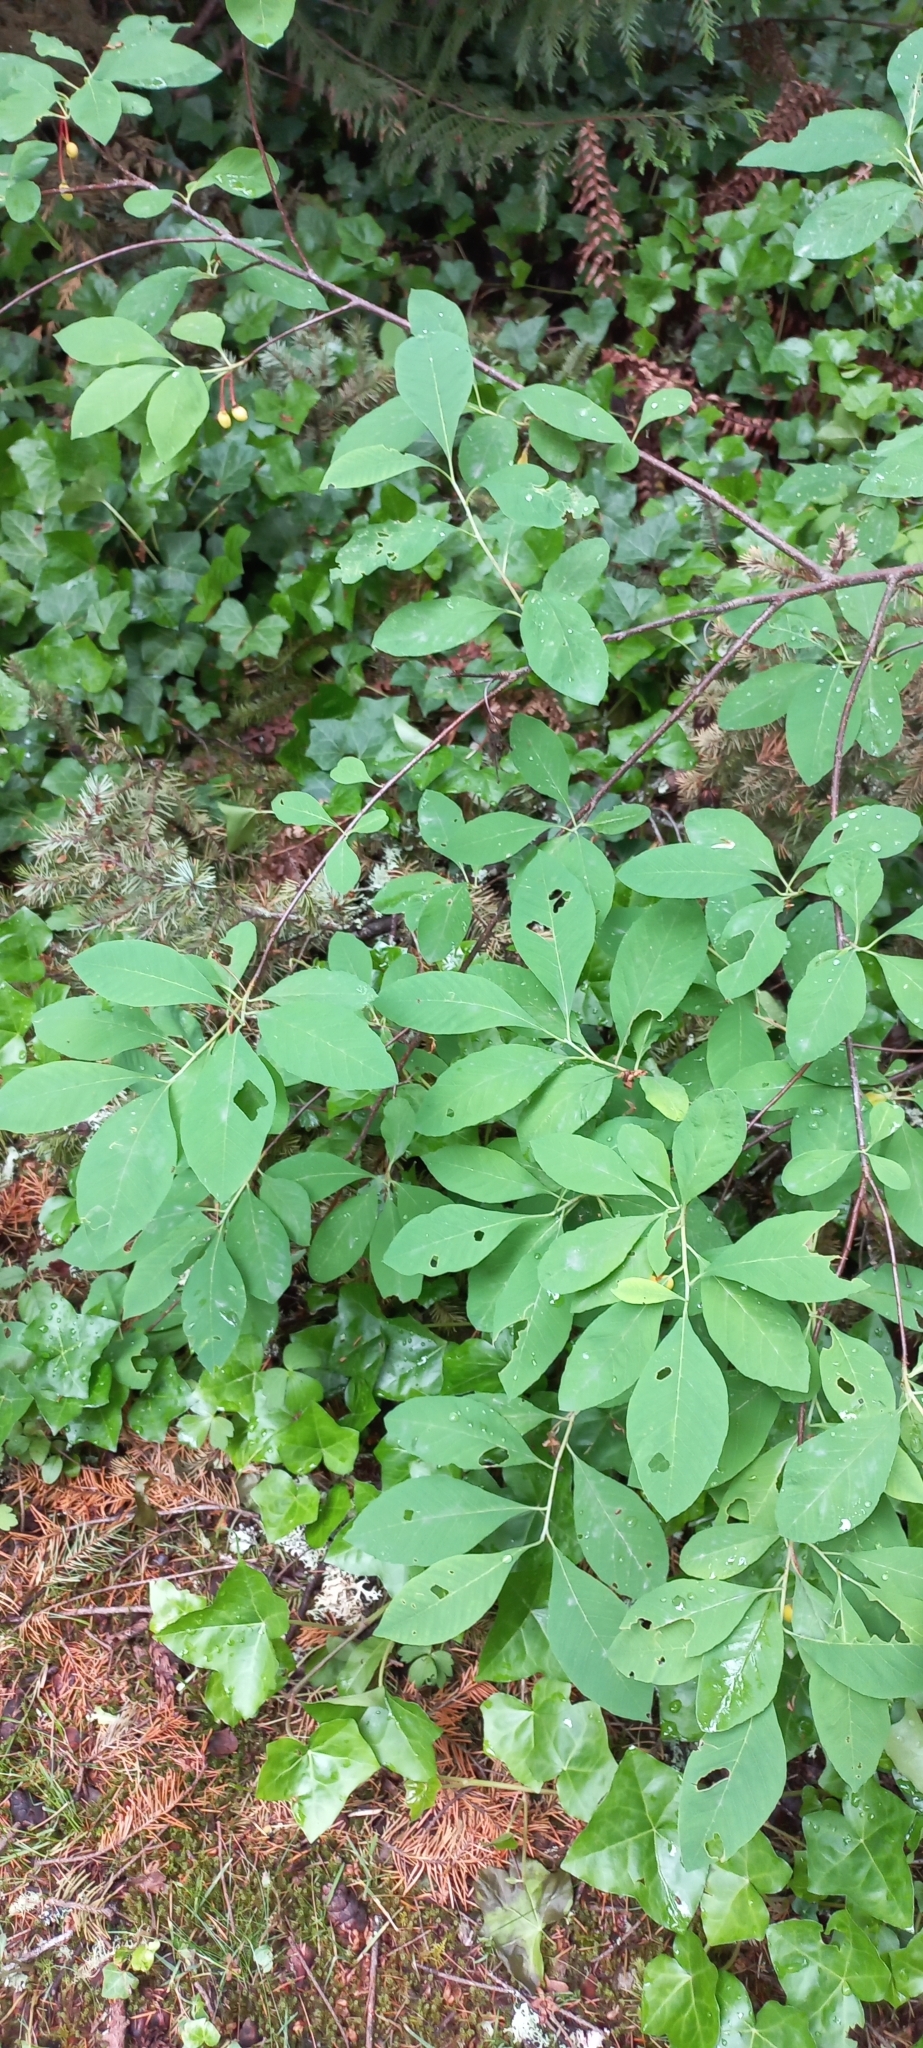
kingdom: Plantae
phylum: Tracheophyta
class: Magnoliopsida
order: Rosales
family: Rosaceae
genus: Oemleria
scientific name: Oemleria cerasiformis
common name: Osoberry
